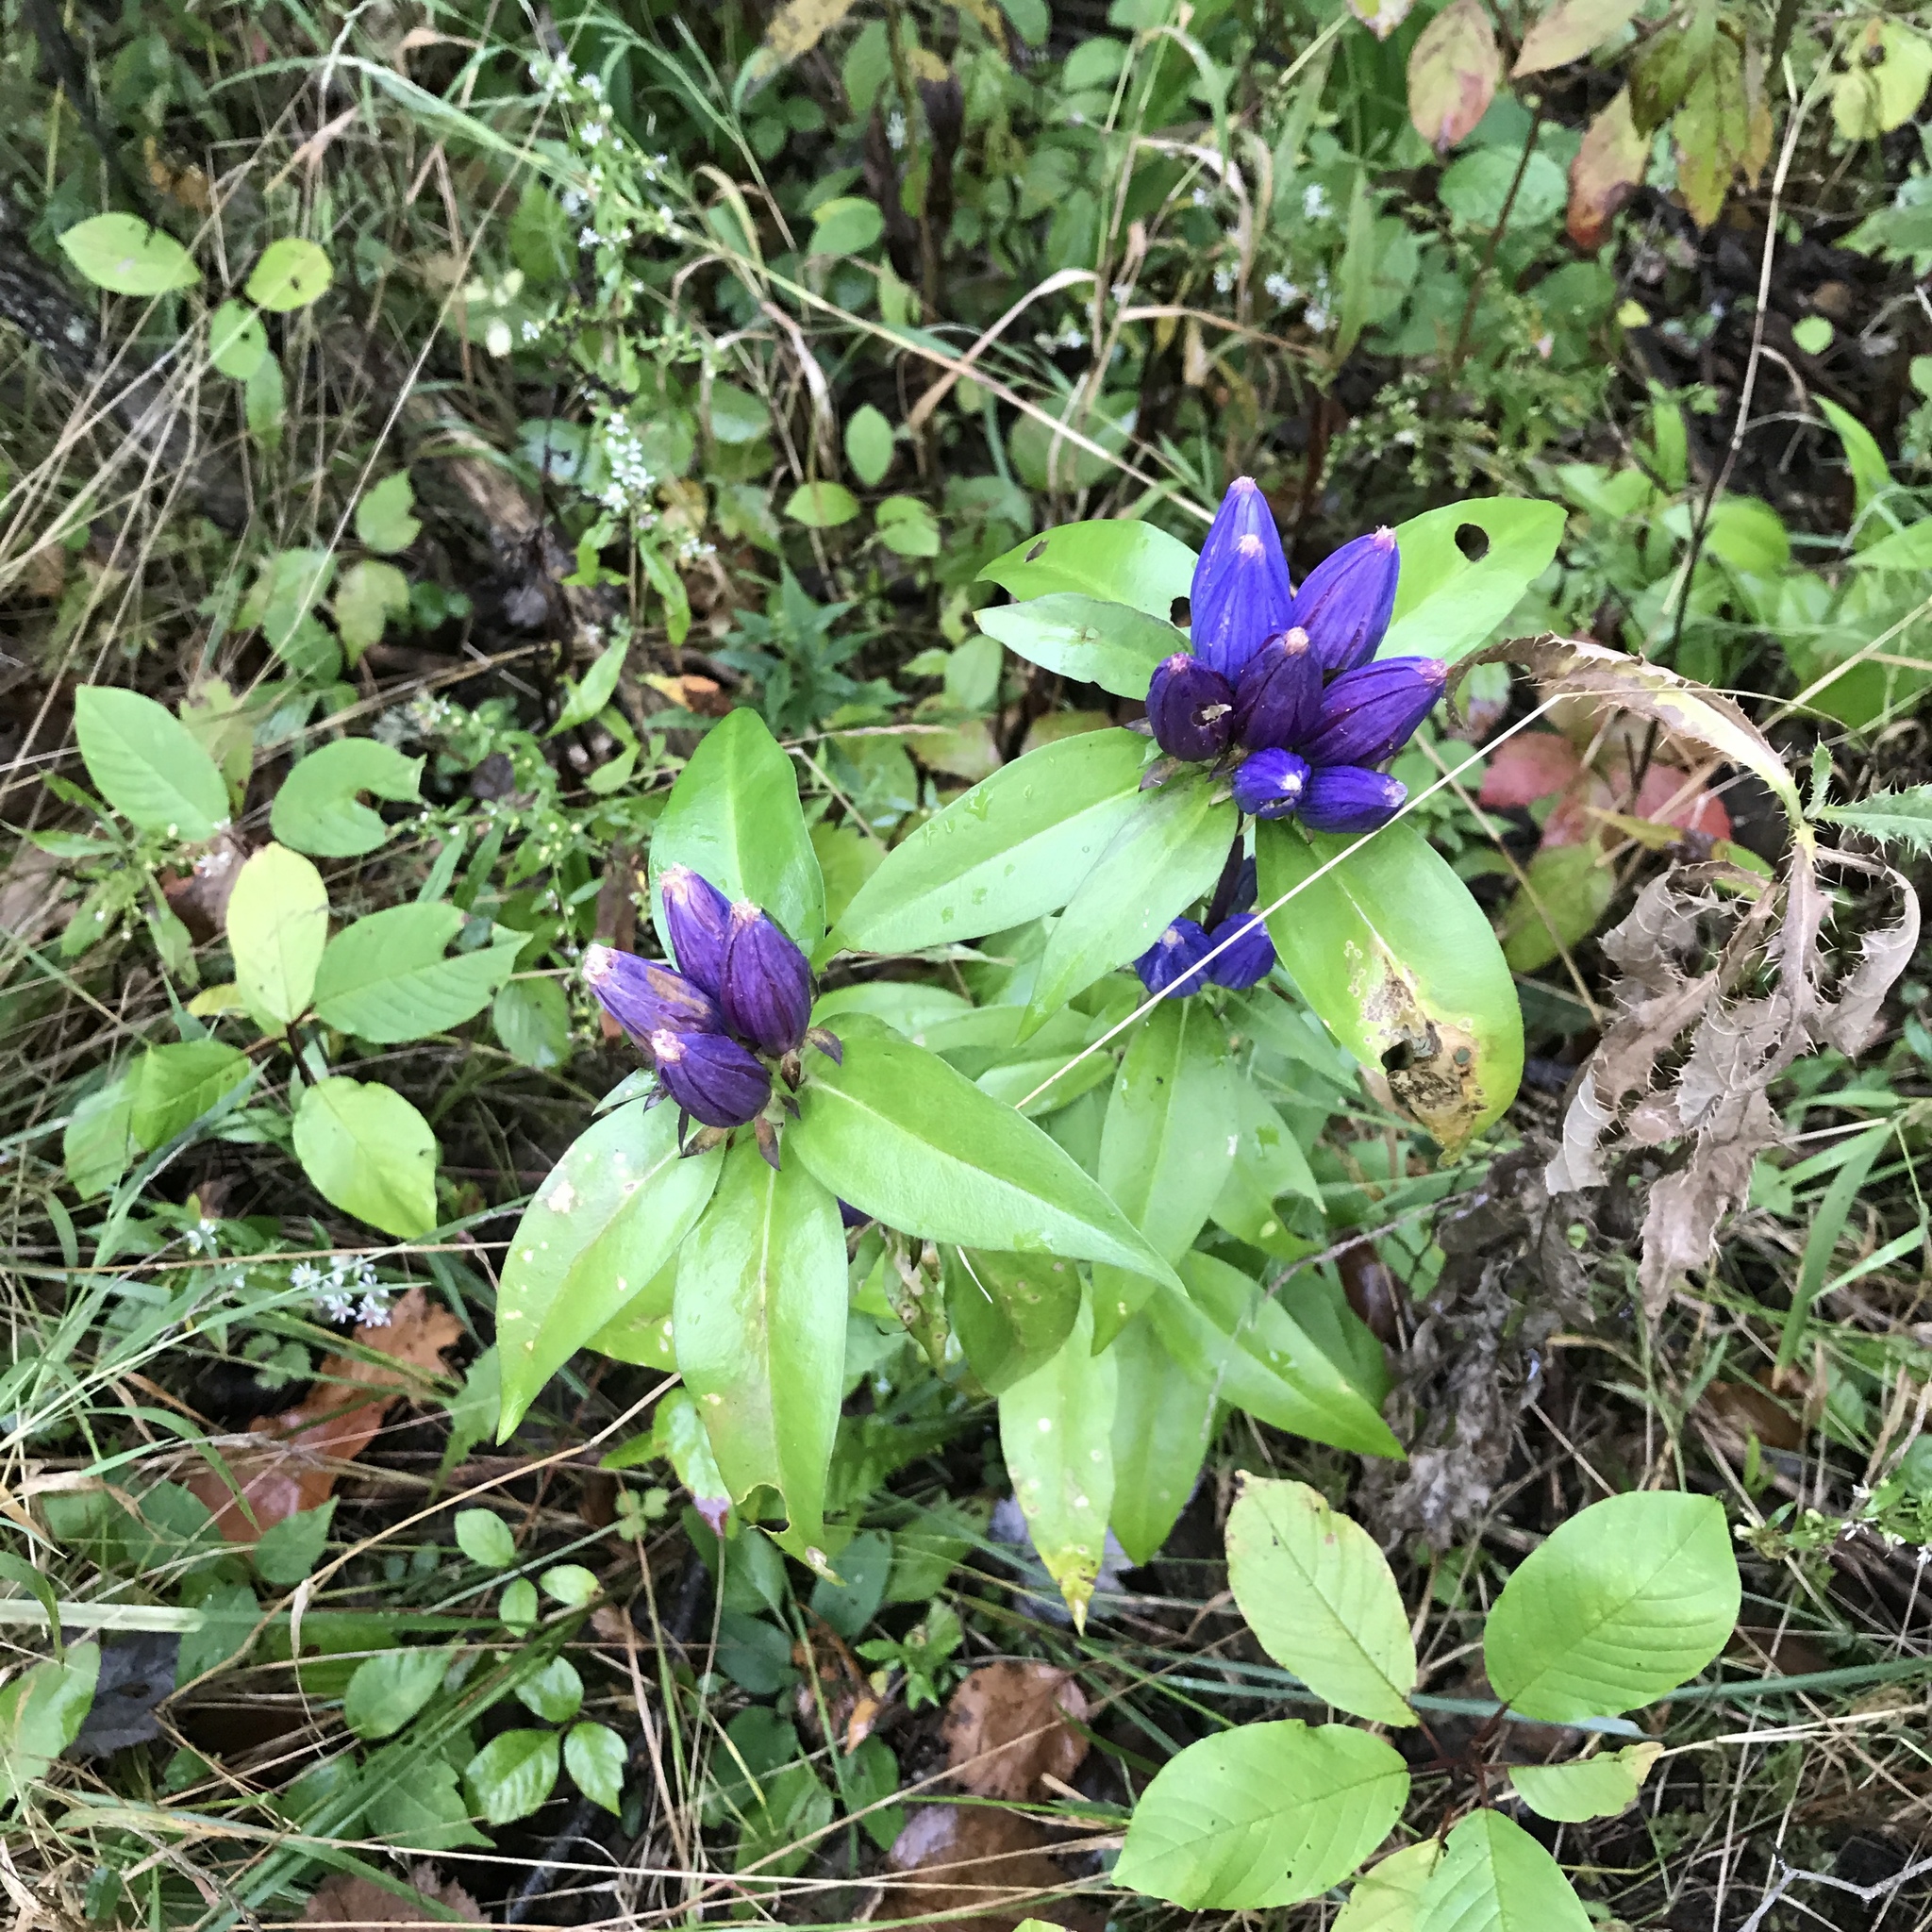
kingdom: Plantae
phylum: Tracheophyta
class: Magnoliopsida
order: Gentianales
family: Gentianaceae
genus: Gentiana
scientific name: Gentiana andrewsii
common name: Bottle gentian
